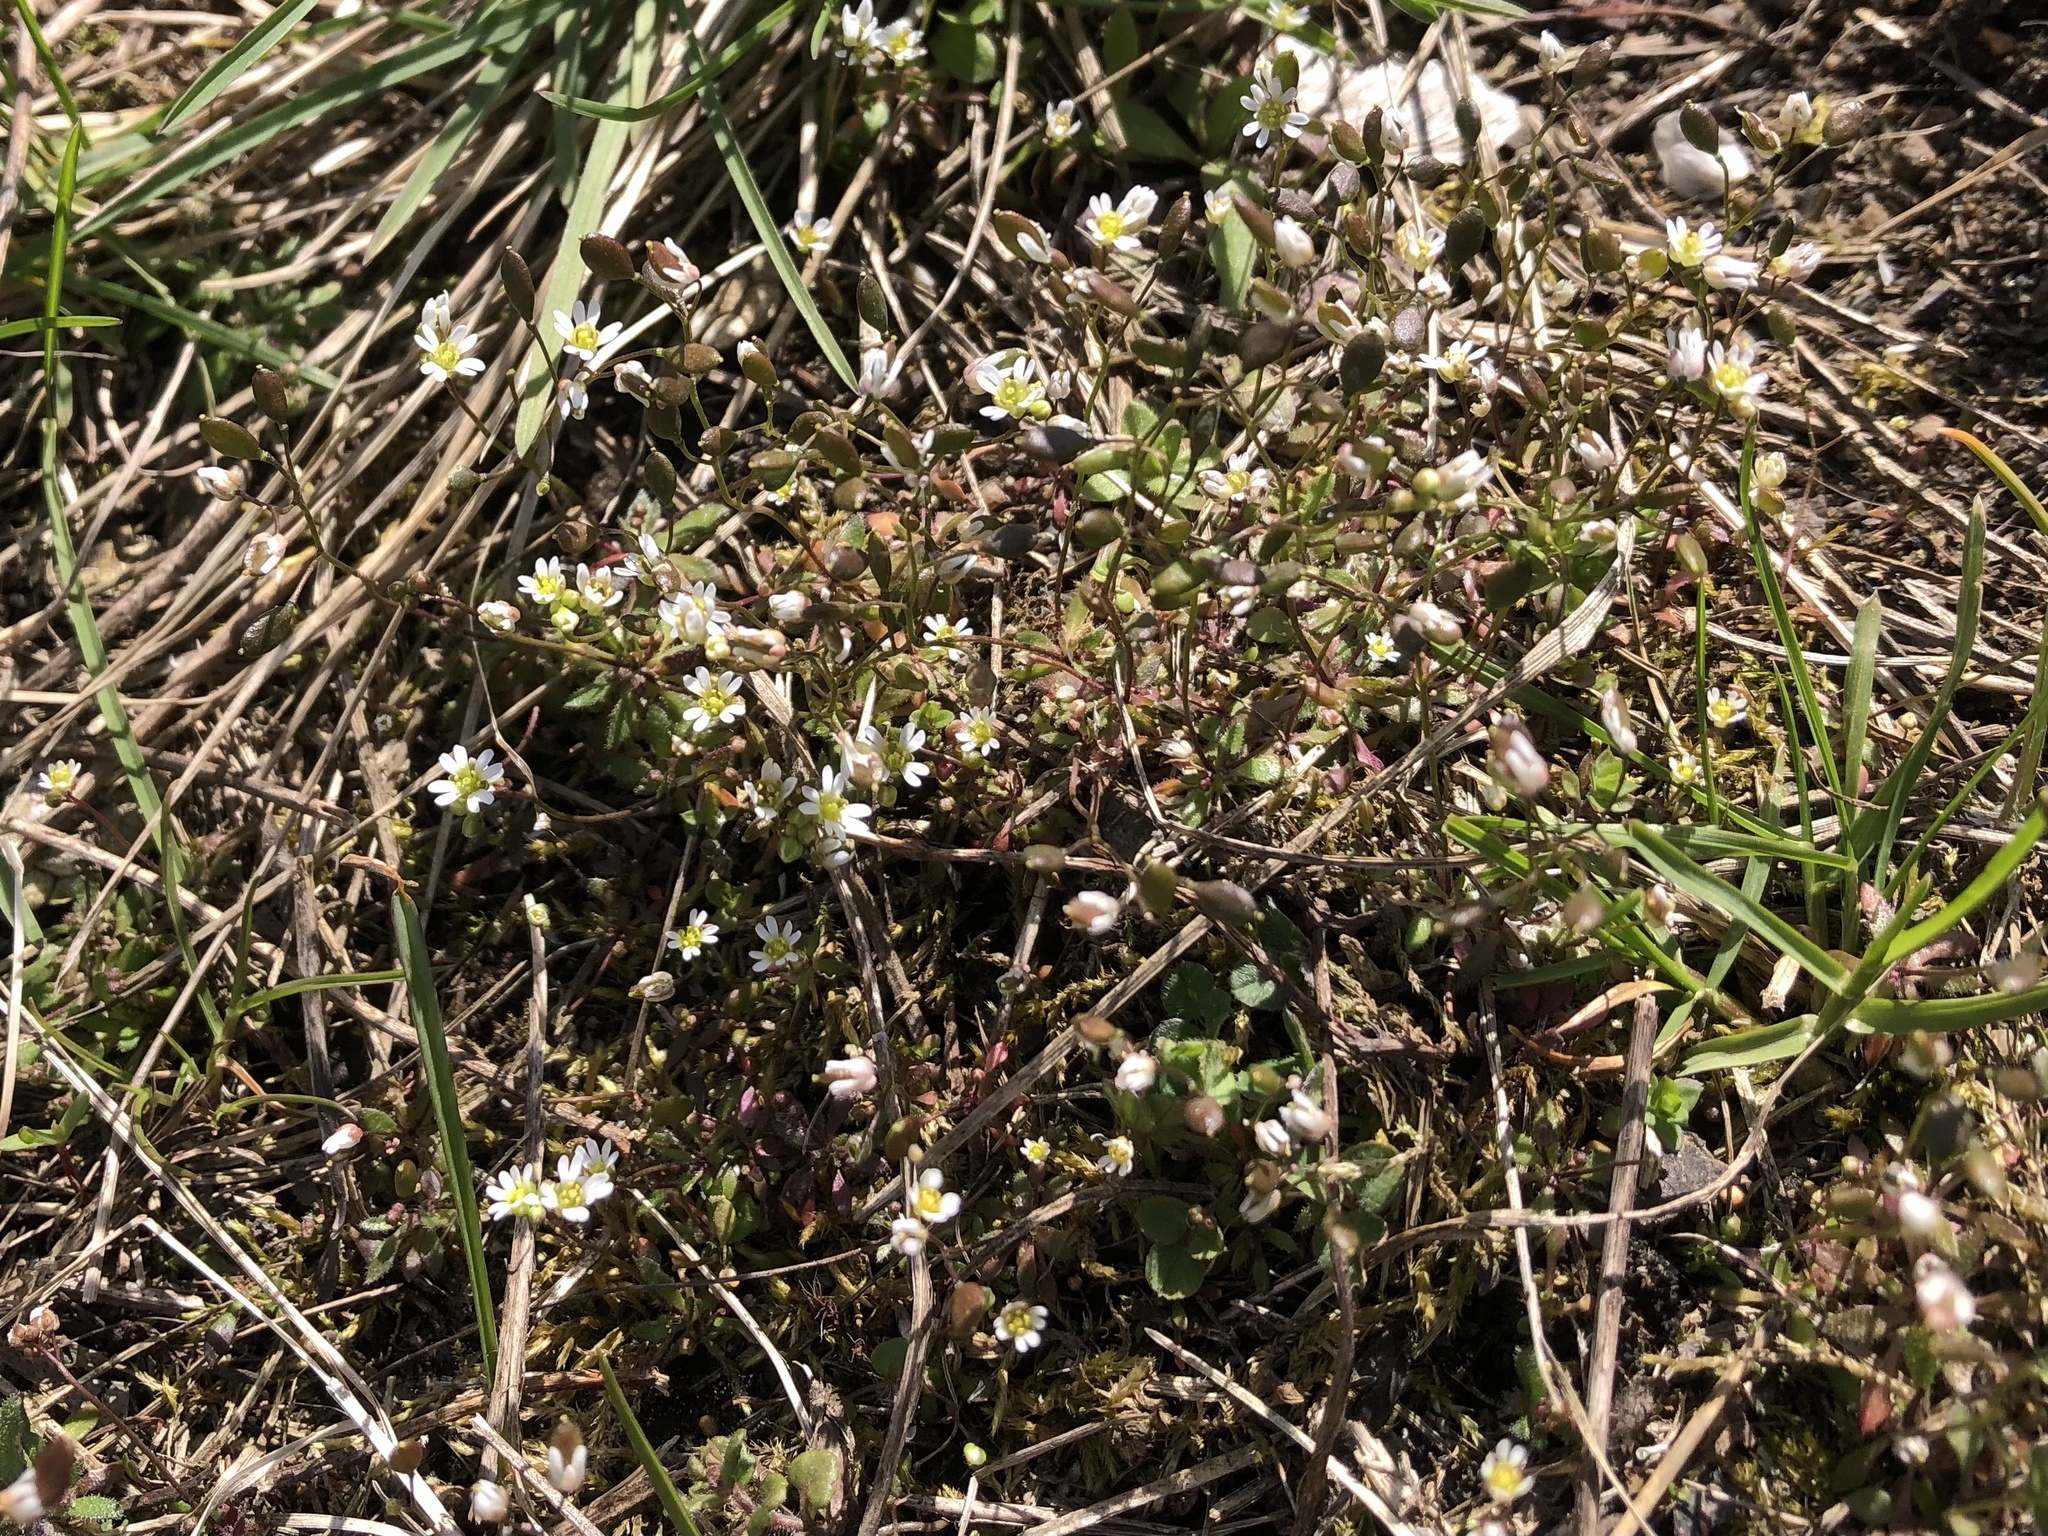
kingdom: Plantae
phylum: Tracheophyta
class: Magnoliopsida
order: Brassicales
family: Brassicaceae
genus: Draba
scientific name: Draba verna
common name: Spring draba
